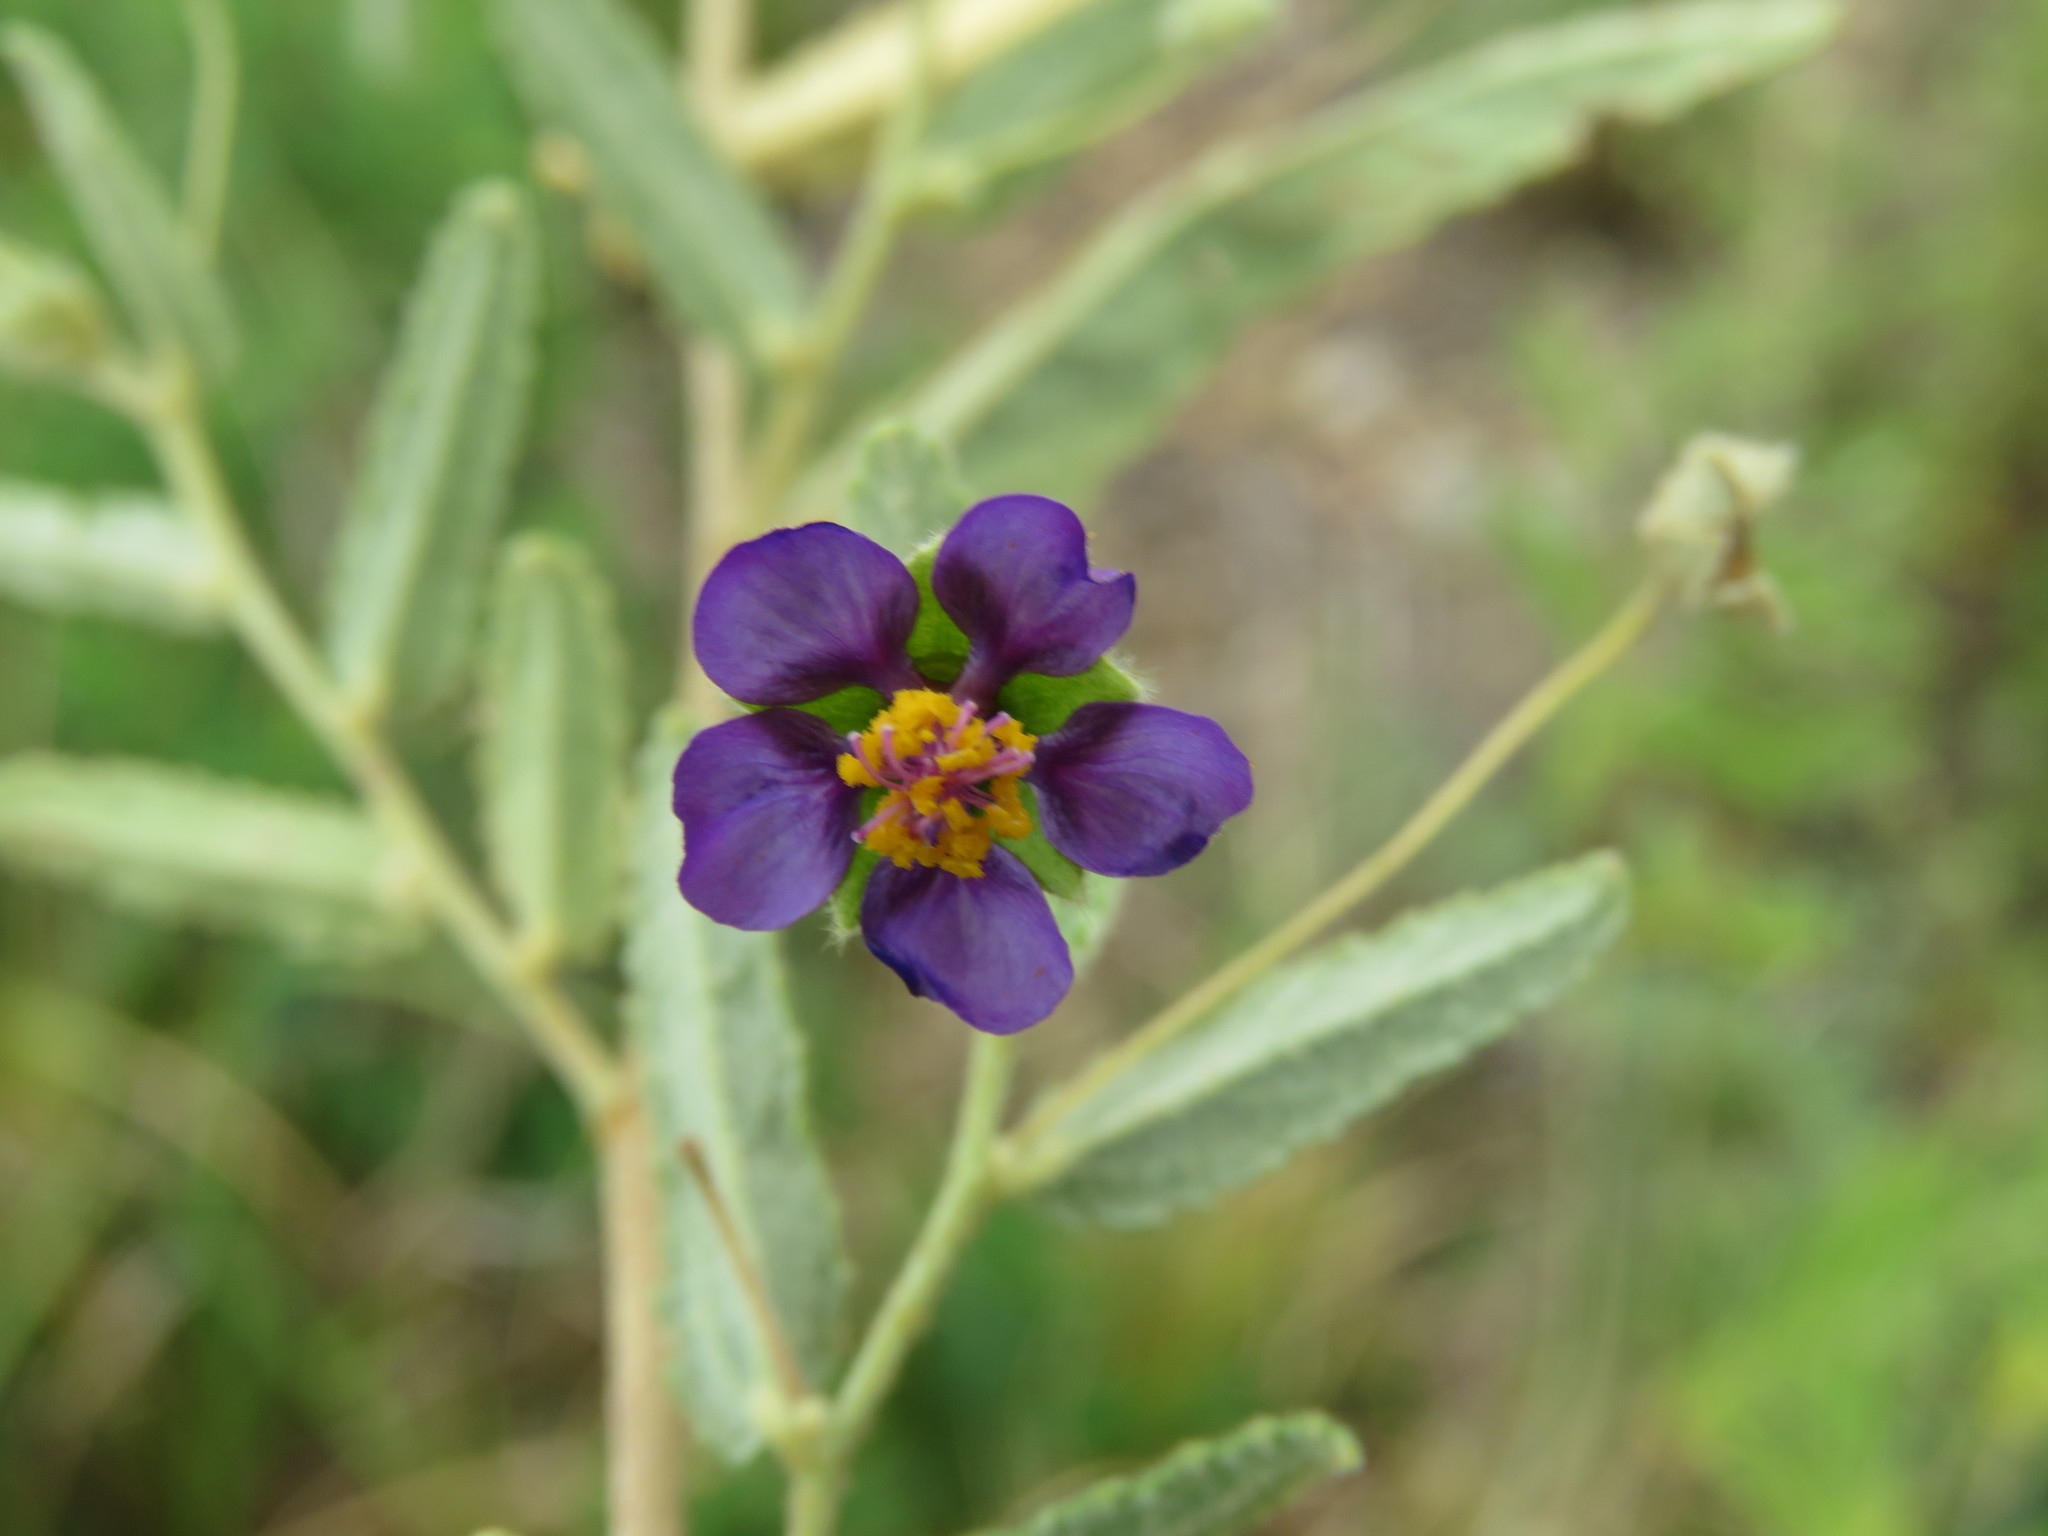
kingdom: Plantae
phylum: Tracheophyta
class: Magnoliopsida
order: Malvales
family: Malvaceae
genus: Meximalva
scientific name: Meximalva filipes
